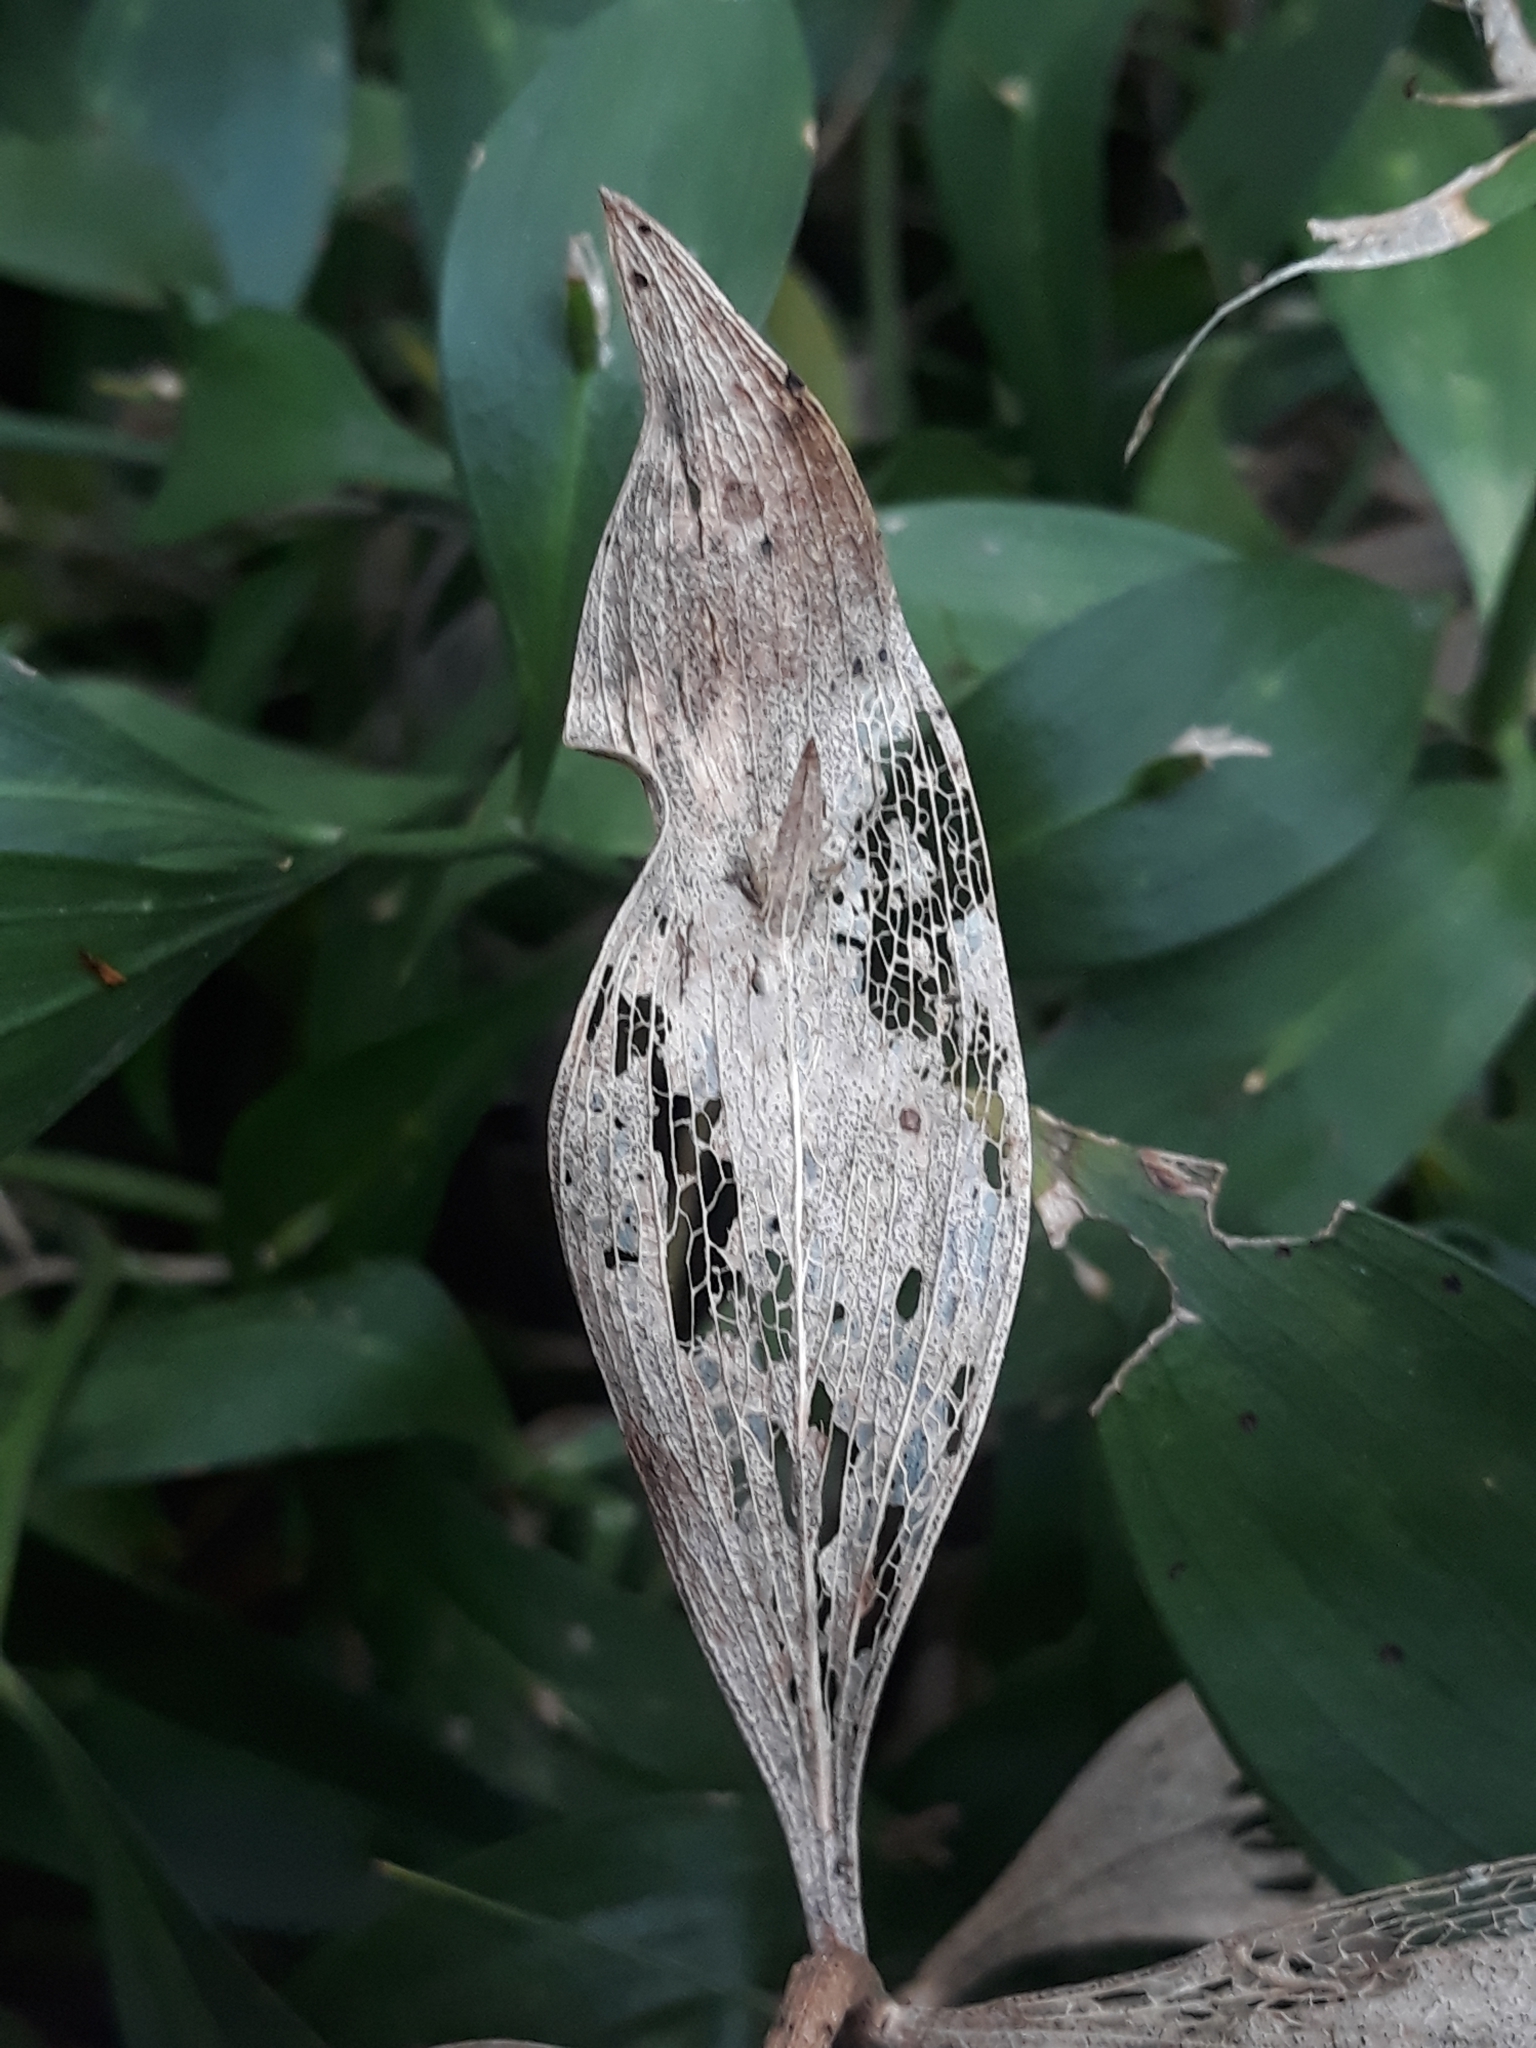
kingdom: Plantae
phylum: Tracheophyta
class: Liliopsida
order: Asparagales
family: Asparagaceae
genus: Ruscus
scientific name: Ruscus aculeatus
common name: Butcher's-broom
